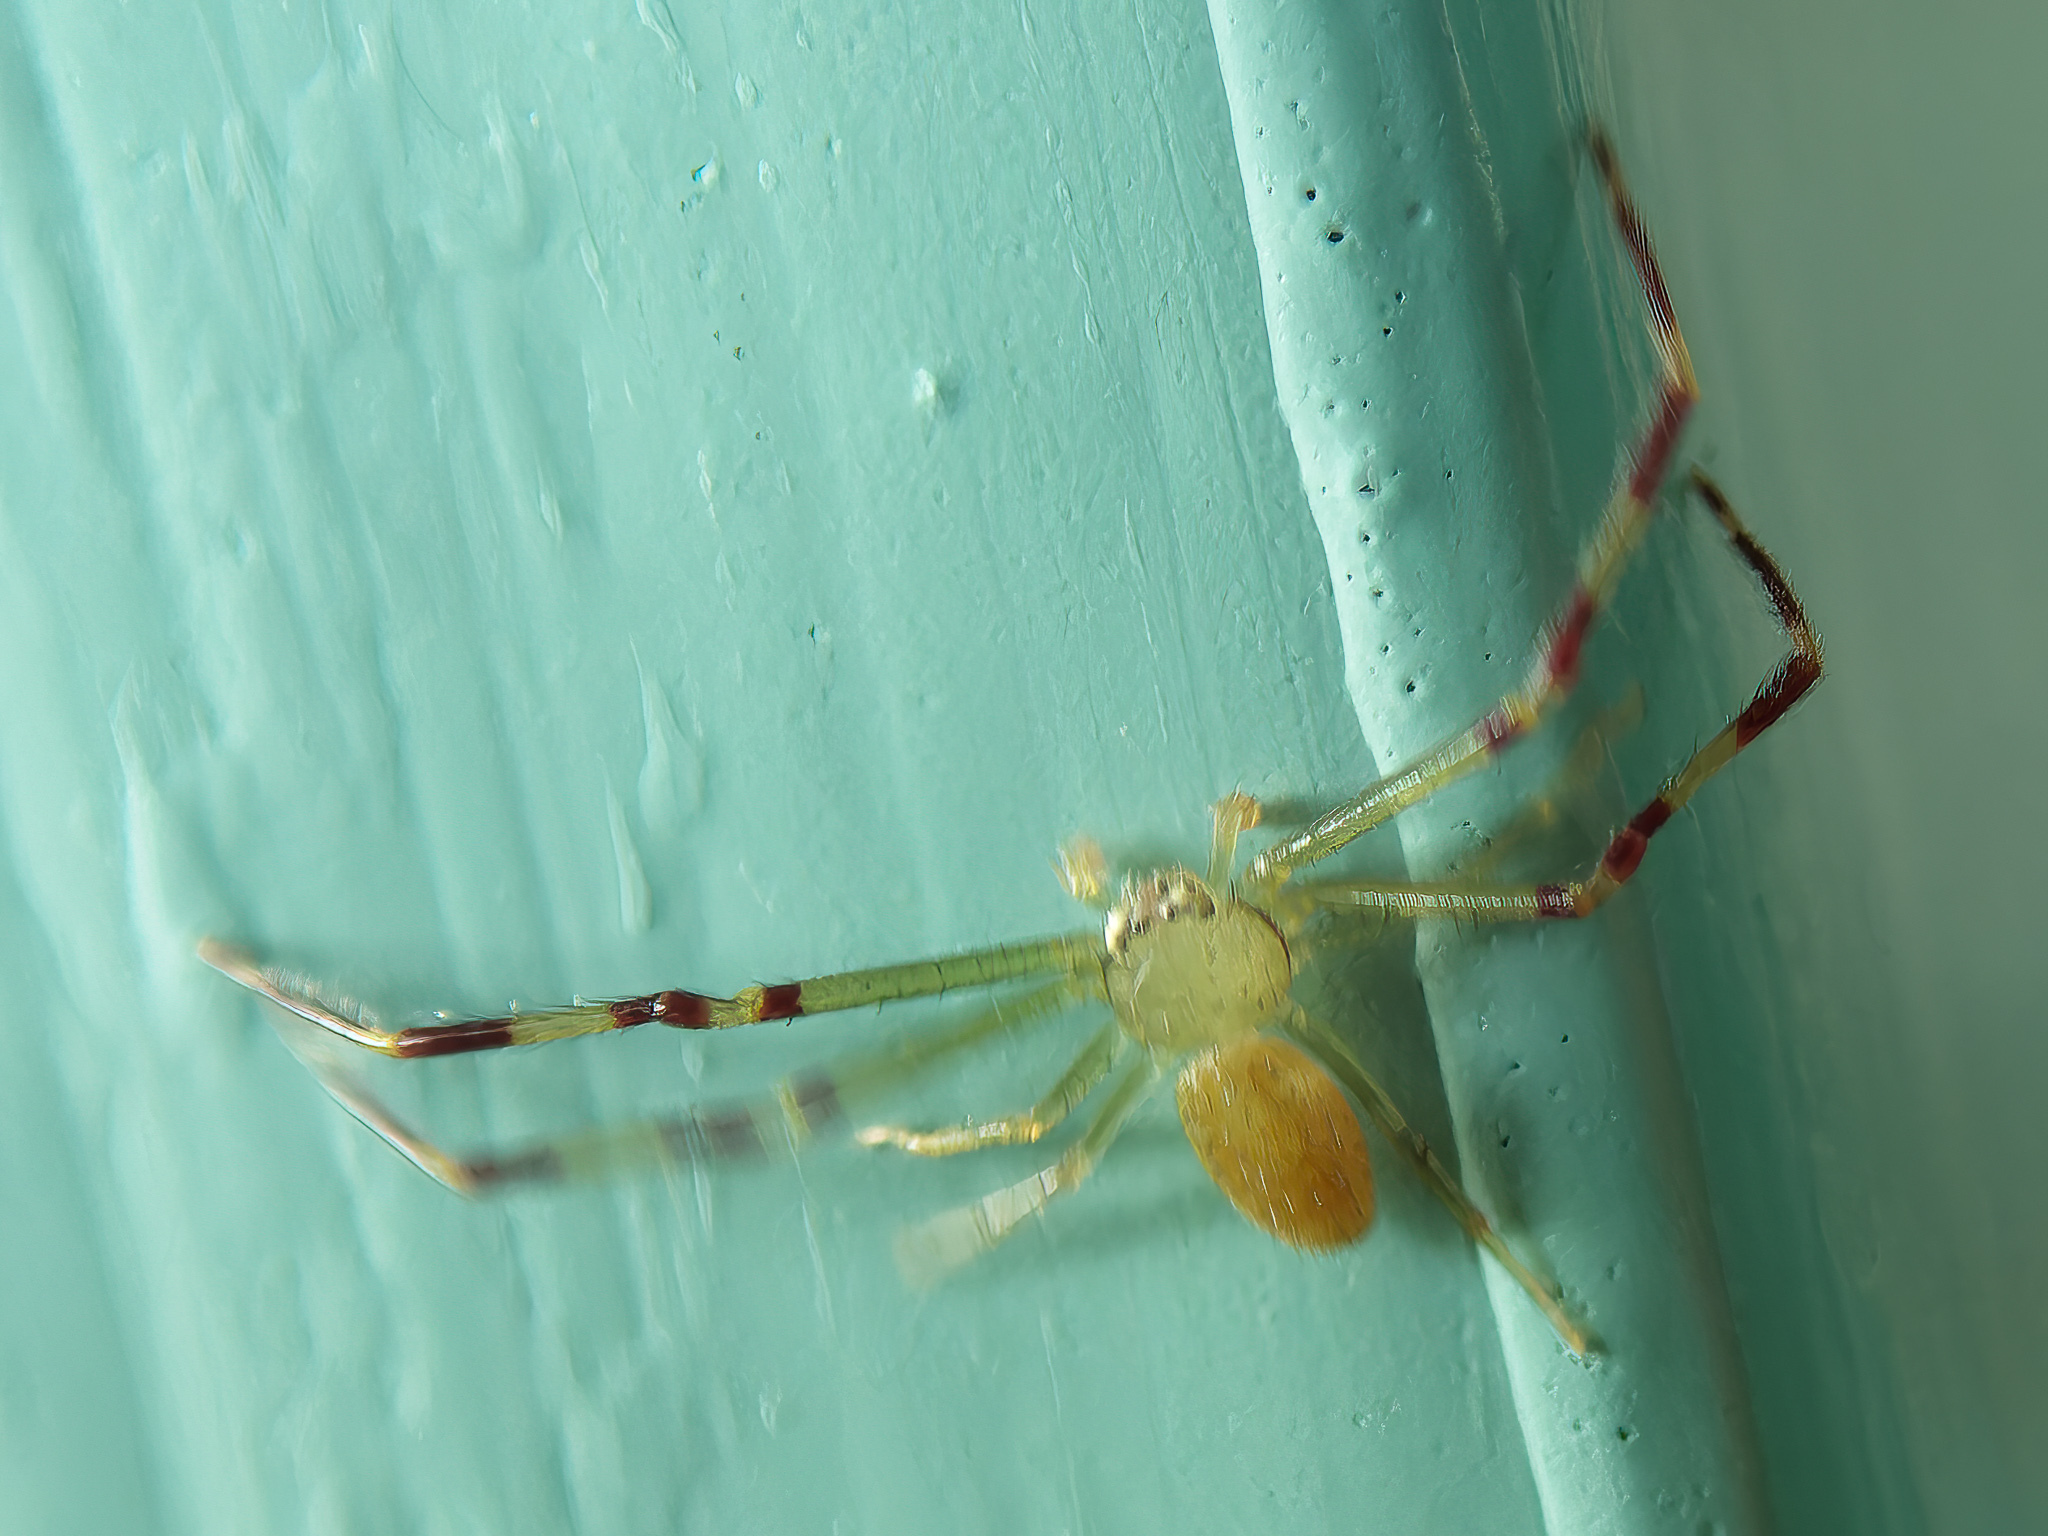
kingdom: Animalia
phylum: Arthropoda
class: Arachnida
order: Araneae
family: Thomisidae
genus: Misumessus
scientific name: Misumessus oblongus
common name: American green crab spider
